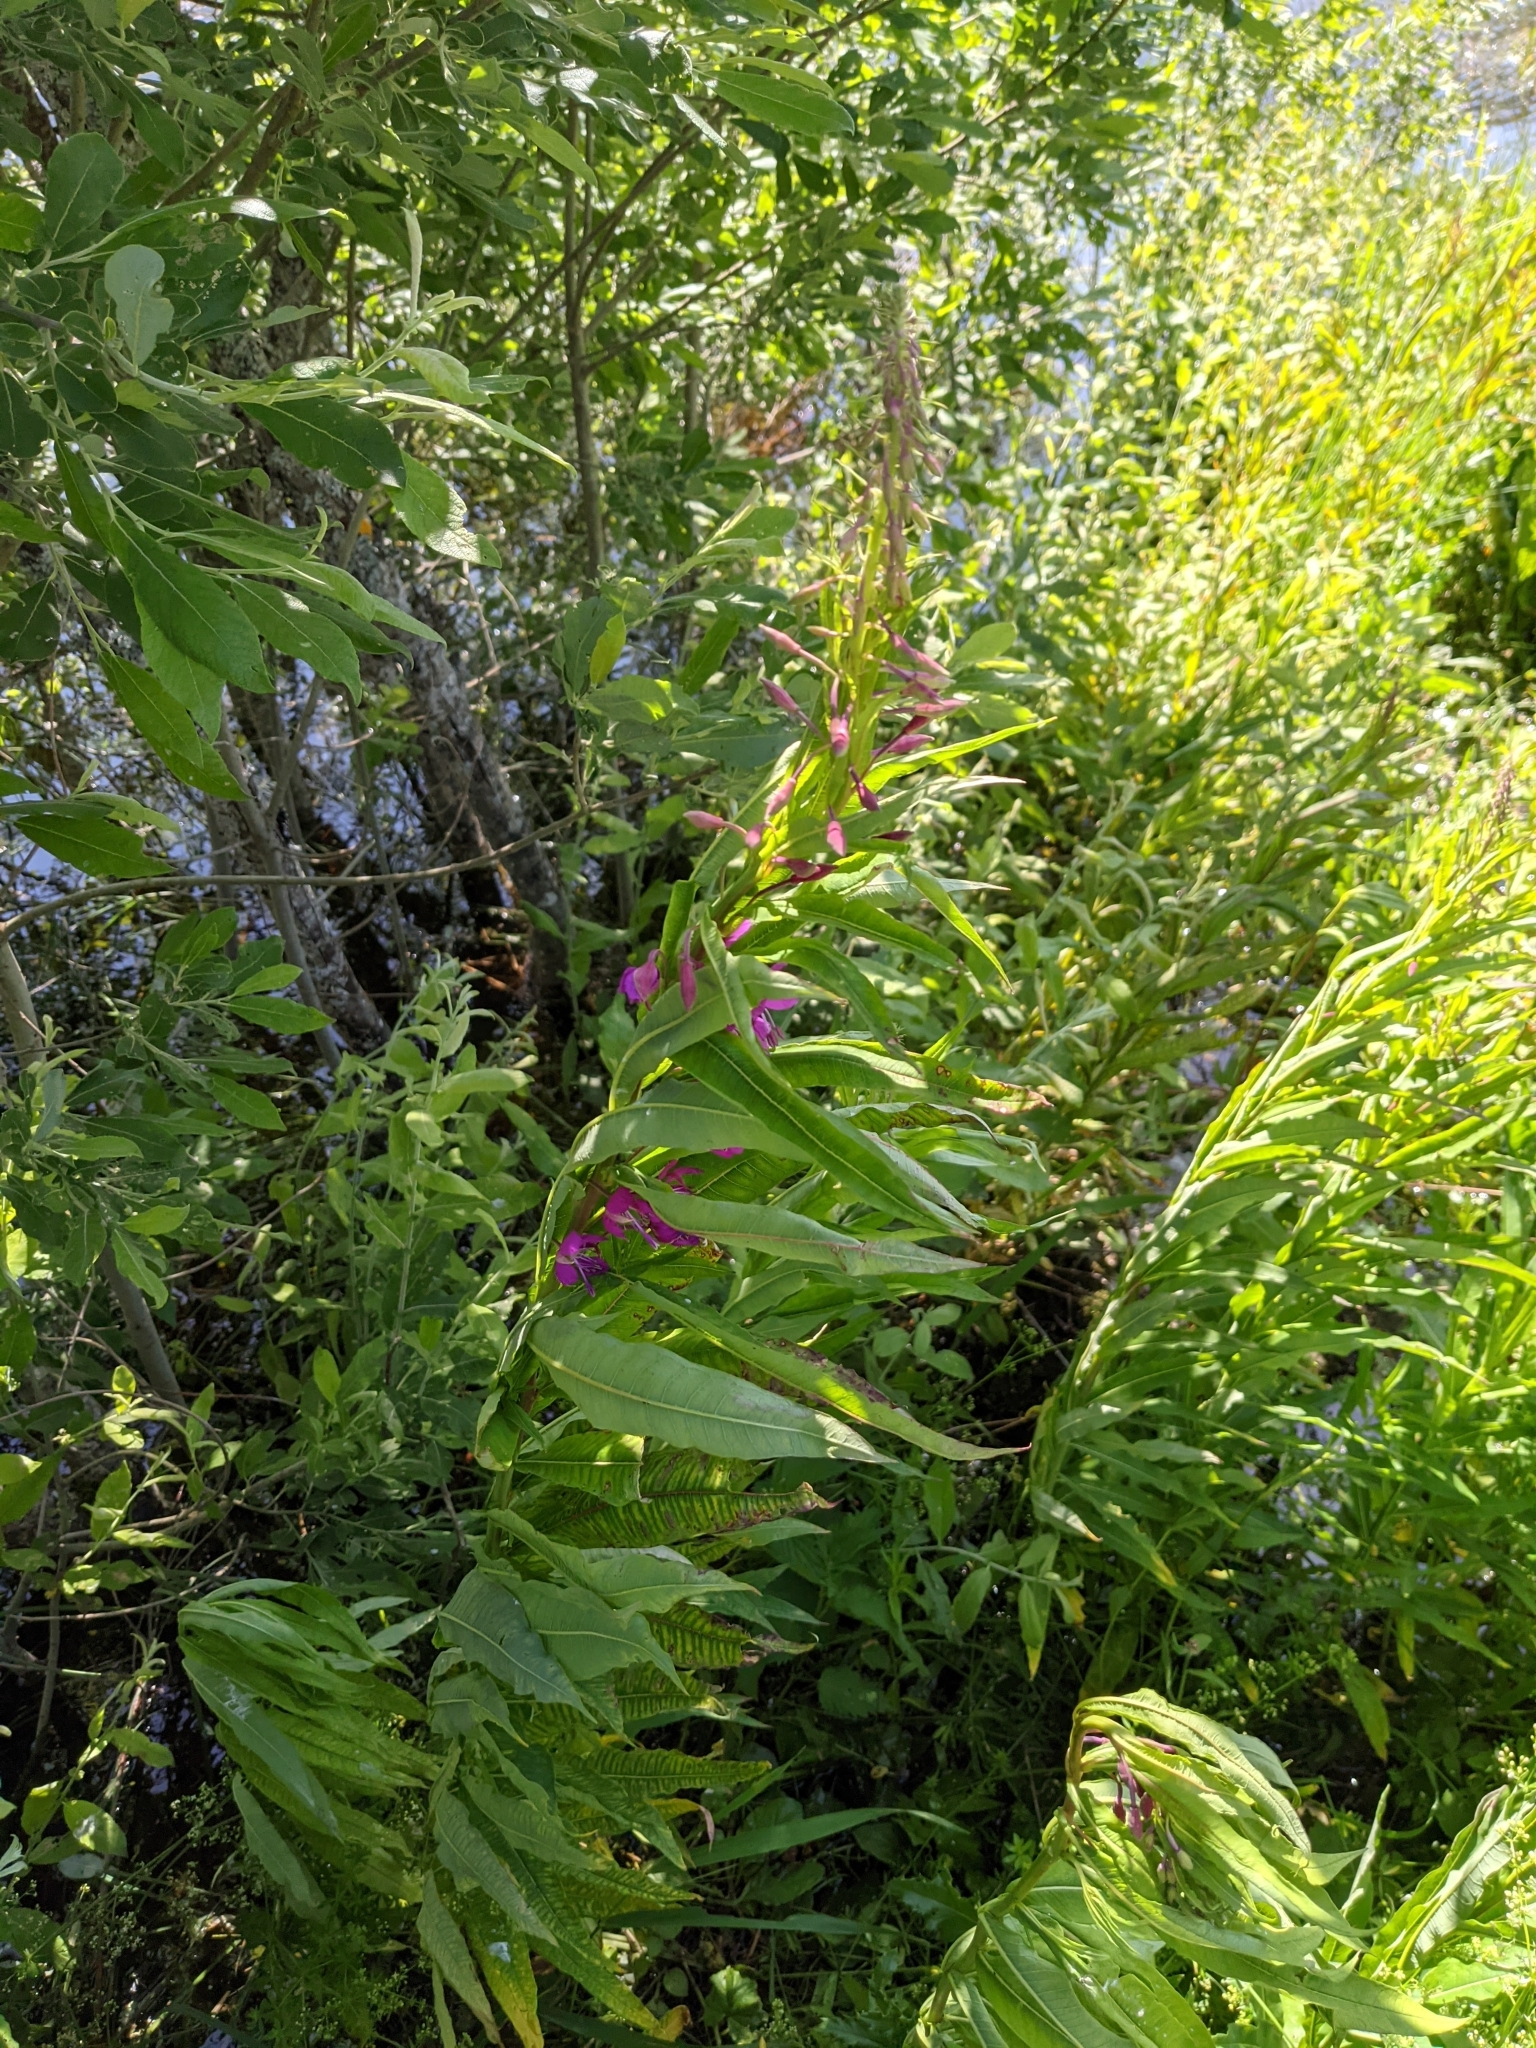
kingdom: Plantae
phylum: Tracheophyta
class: Magnoliopsida
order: Myrtales
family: Onagraceae
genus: Chamaenerion
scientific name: Chamaenerion angustifolium
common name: Fireweed
